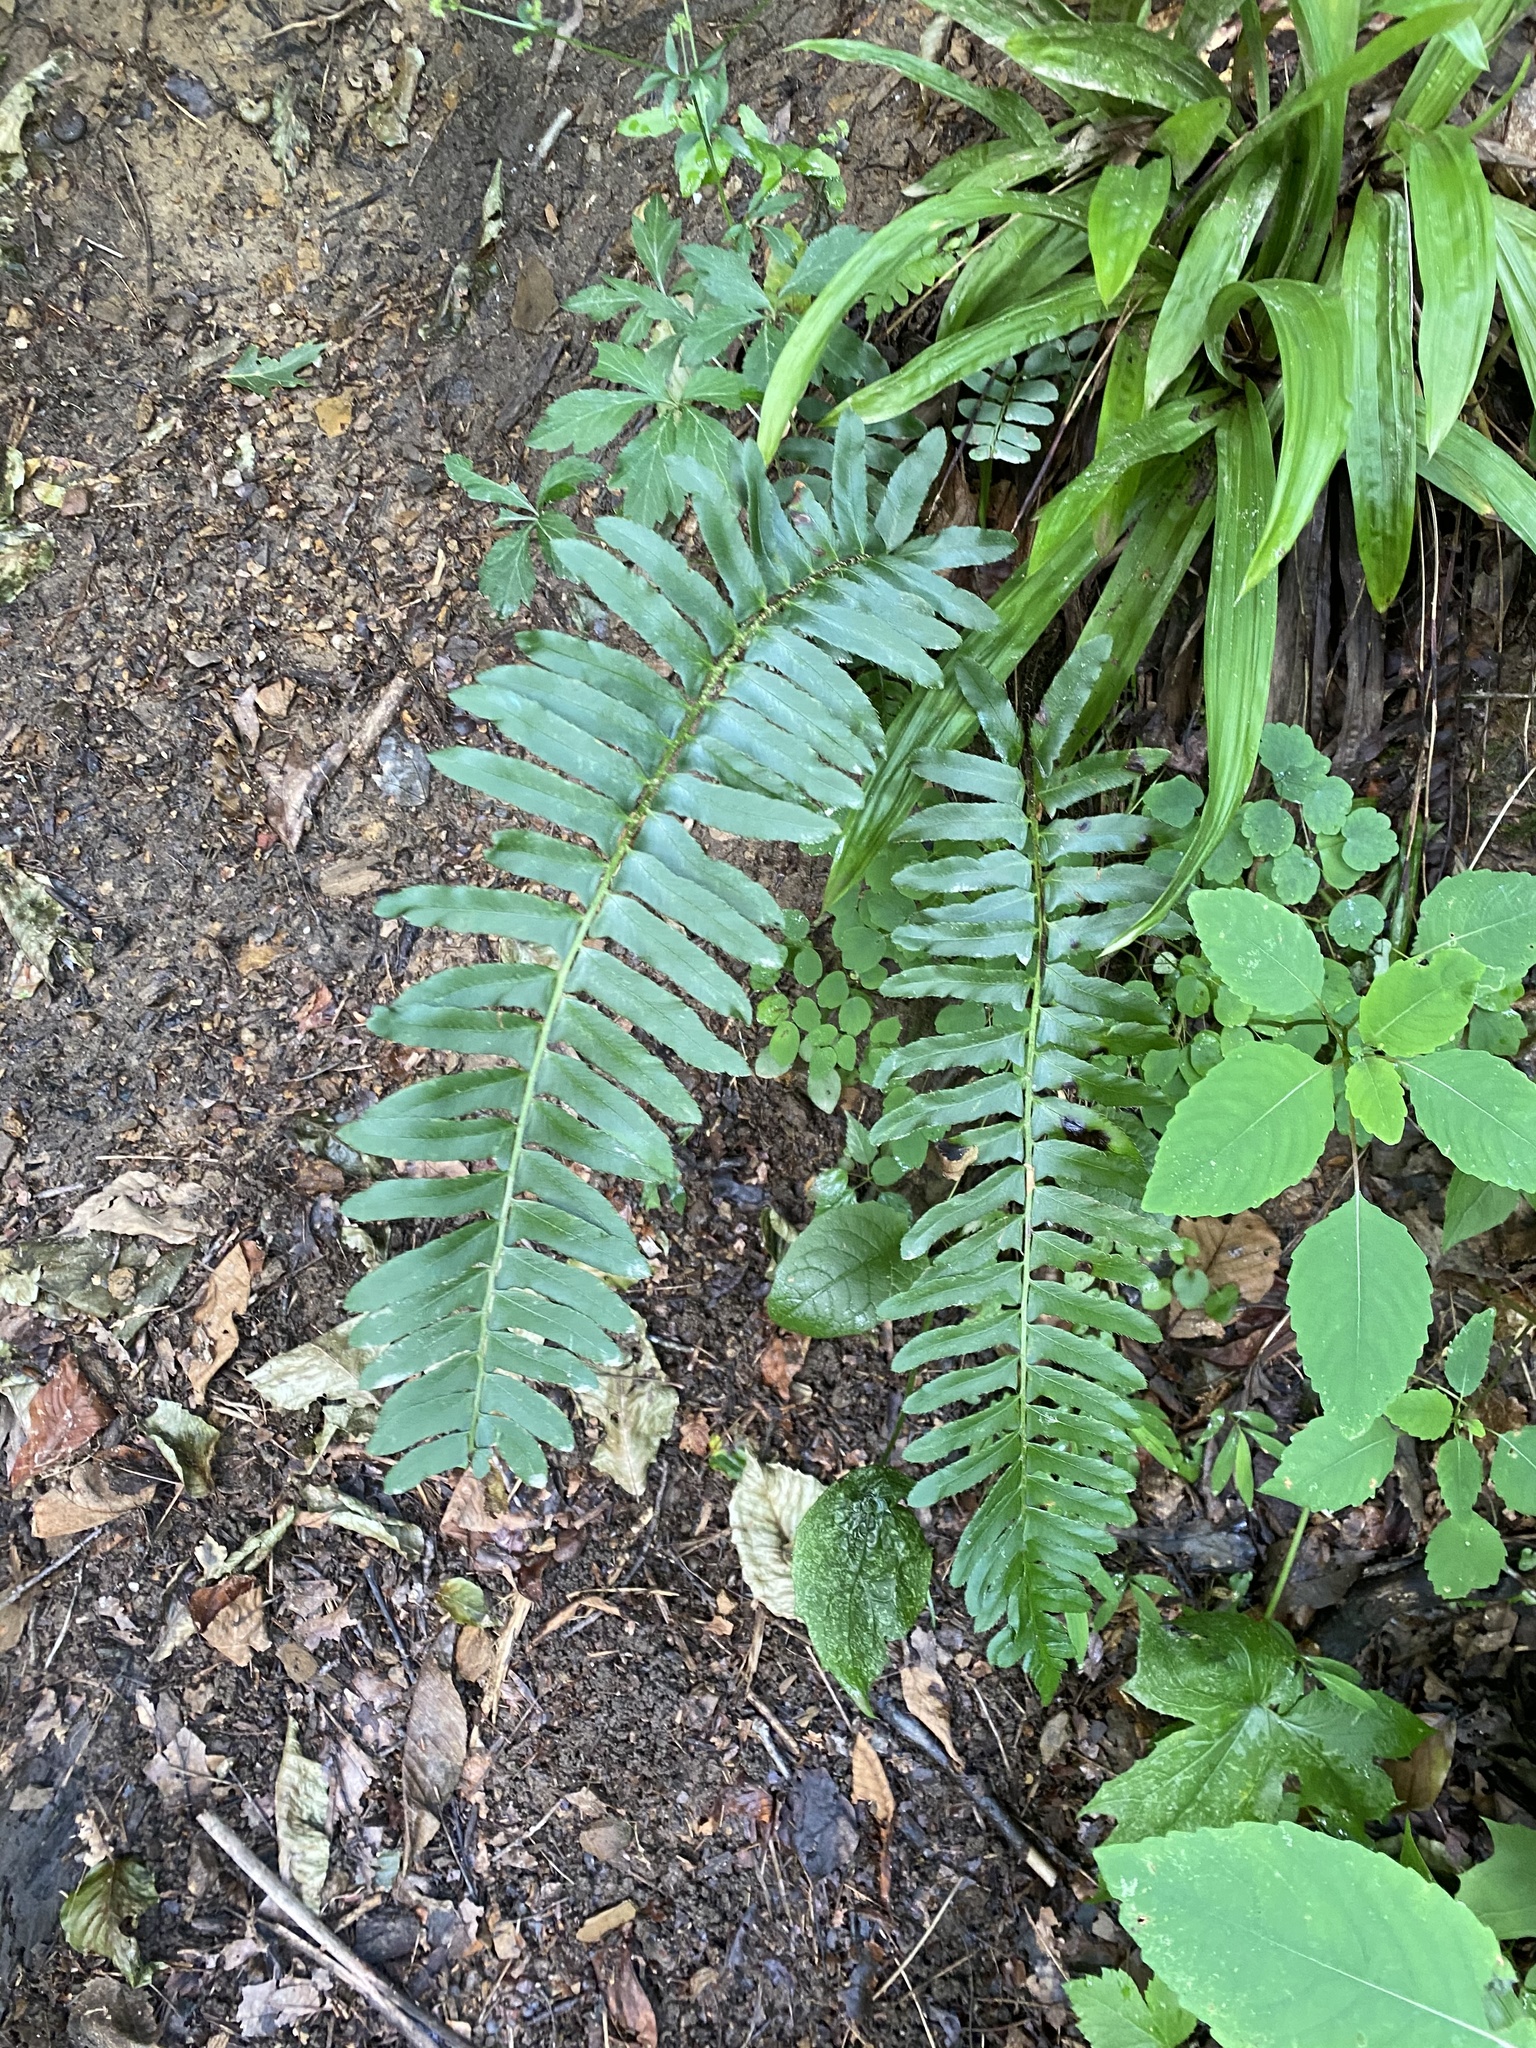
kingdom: Plantae
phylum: Tracheophyta
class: Polypodiopsida
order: Polypodiales
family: Dryopteridaceae
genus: Polystichum
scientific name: Polystichum acrostichoides
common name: Christmas fern
